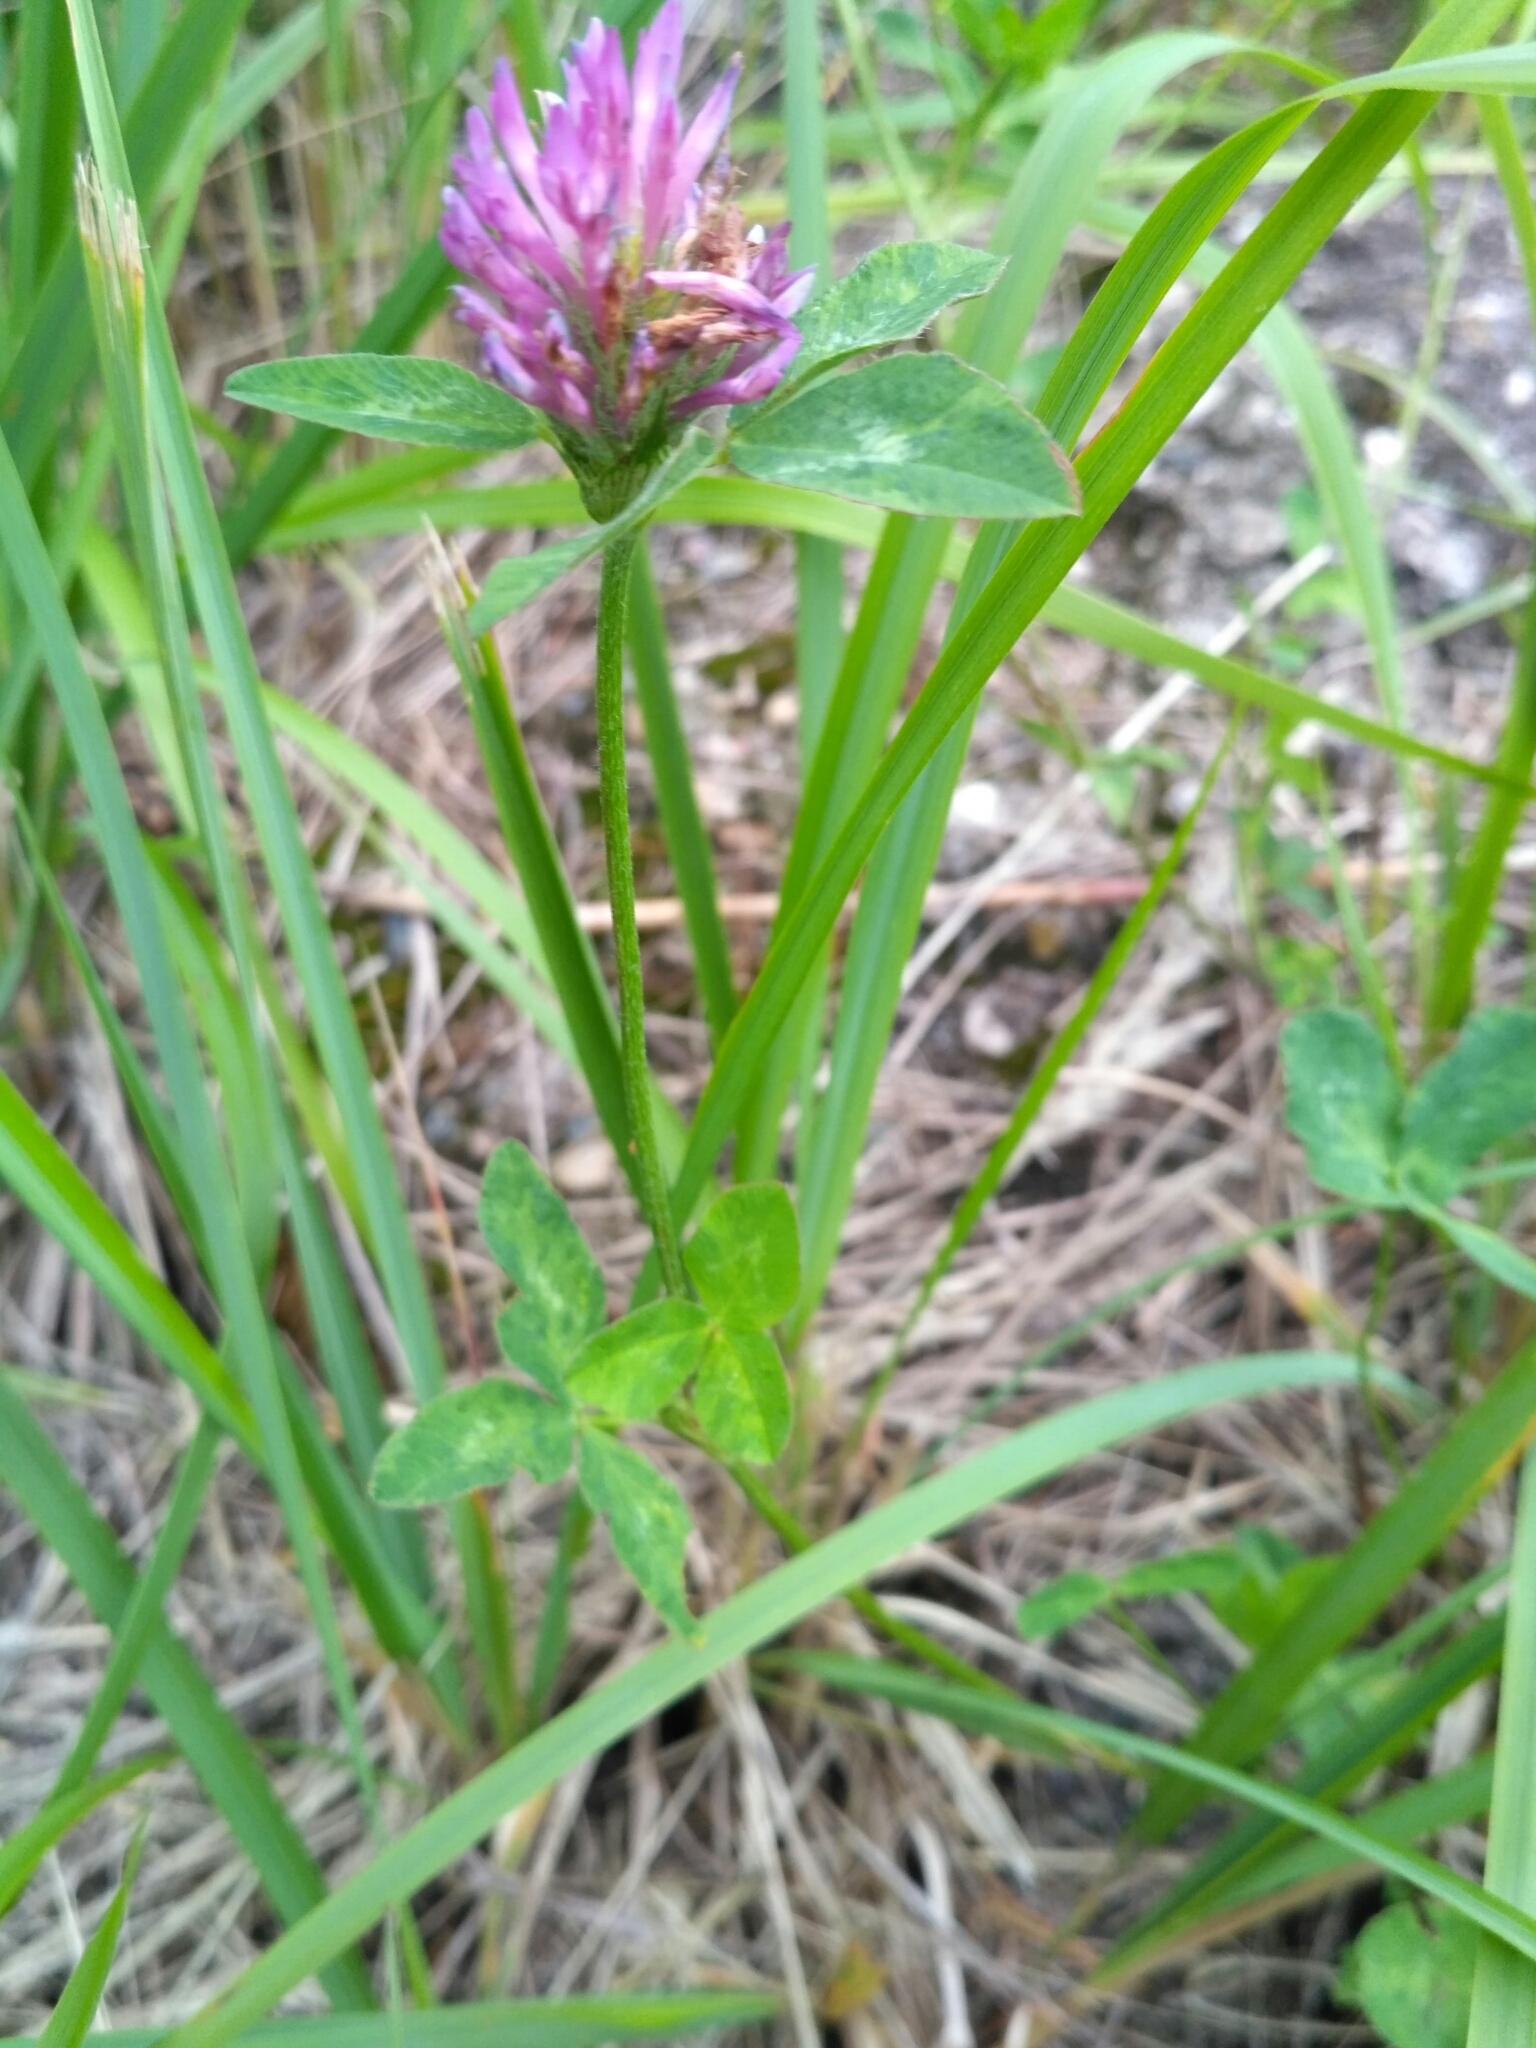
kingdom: Plantae
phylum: Tracheophyta
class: Magnoliopsida
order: Fabales
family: Fabaceae
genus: Trifolium
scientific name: Trifolium pratense
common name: Red clover
